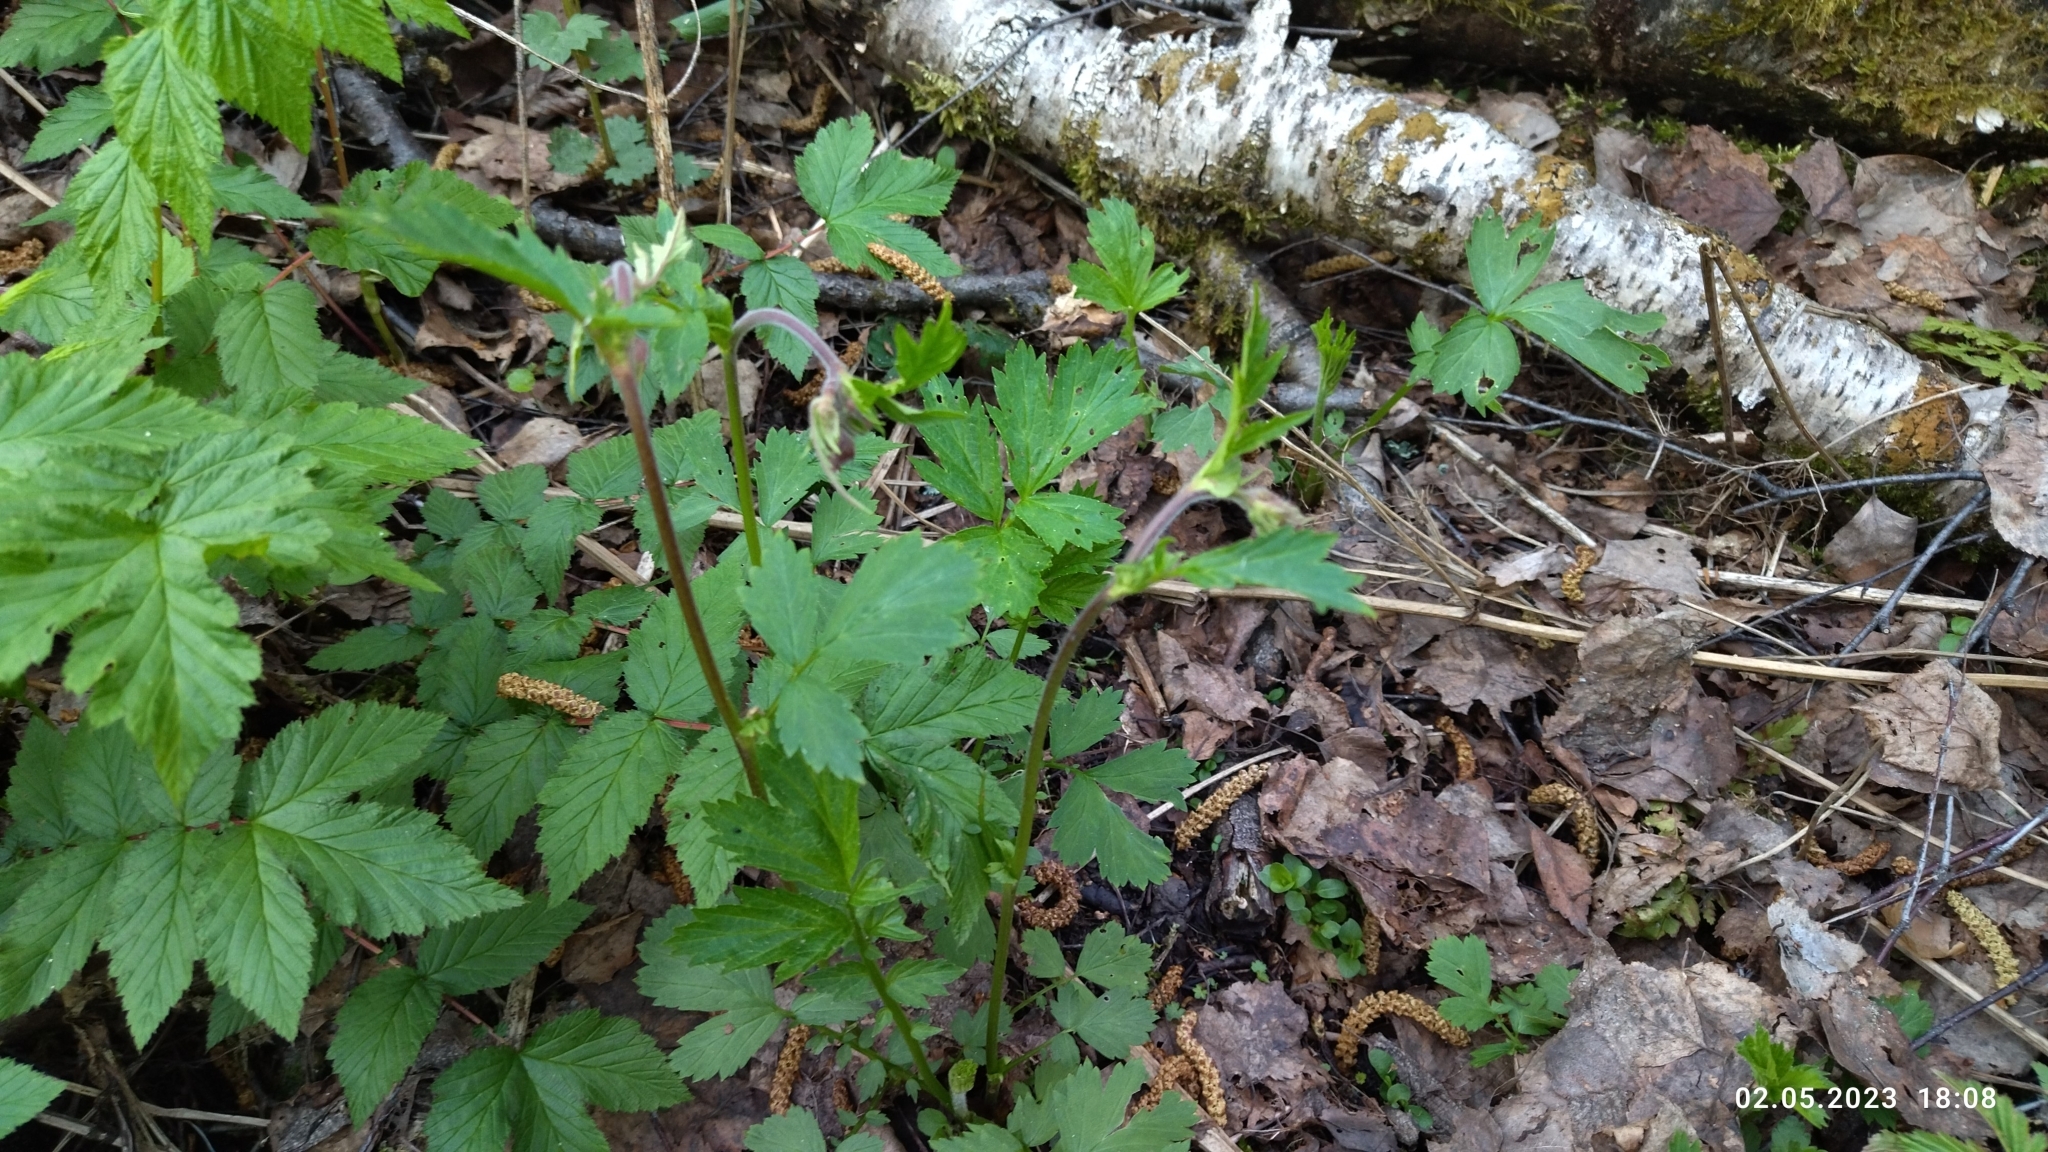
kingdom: Plantae
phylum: Tracheophyta
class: Magnoliopsida
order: Rosales
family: Rosaceae
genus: Geum
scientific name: Geum rivale
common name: Water avens
